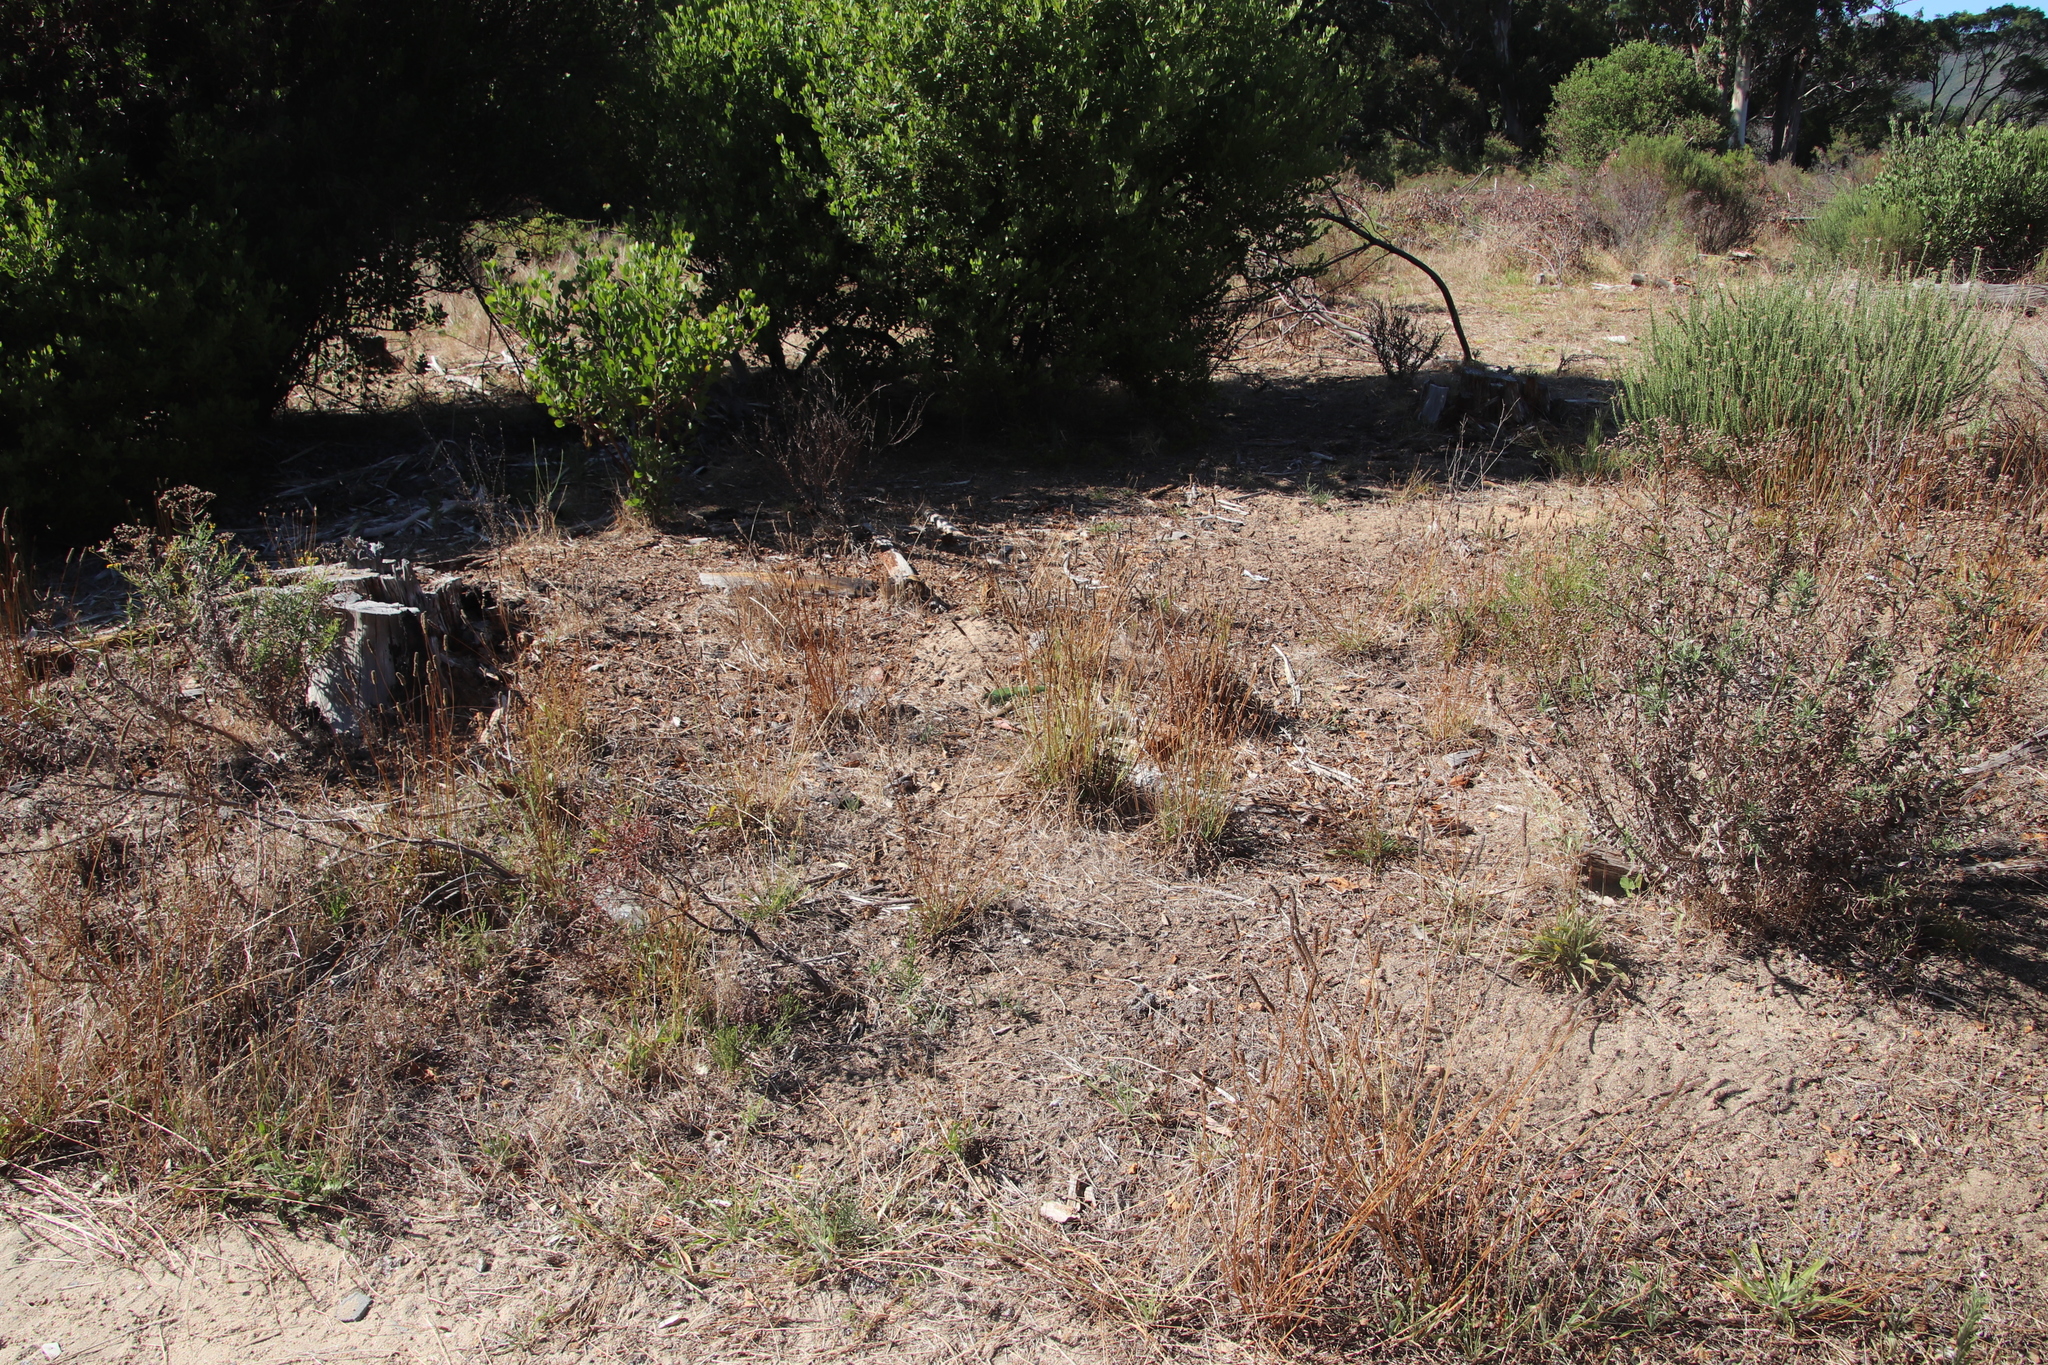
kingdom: Plantae
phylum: Tracheophyta
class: Magnoliopsida
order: Lamiales
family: Plantaginaceae
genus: Plantago
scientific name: Plantago lanceolata
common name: Ribwort plantain
